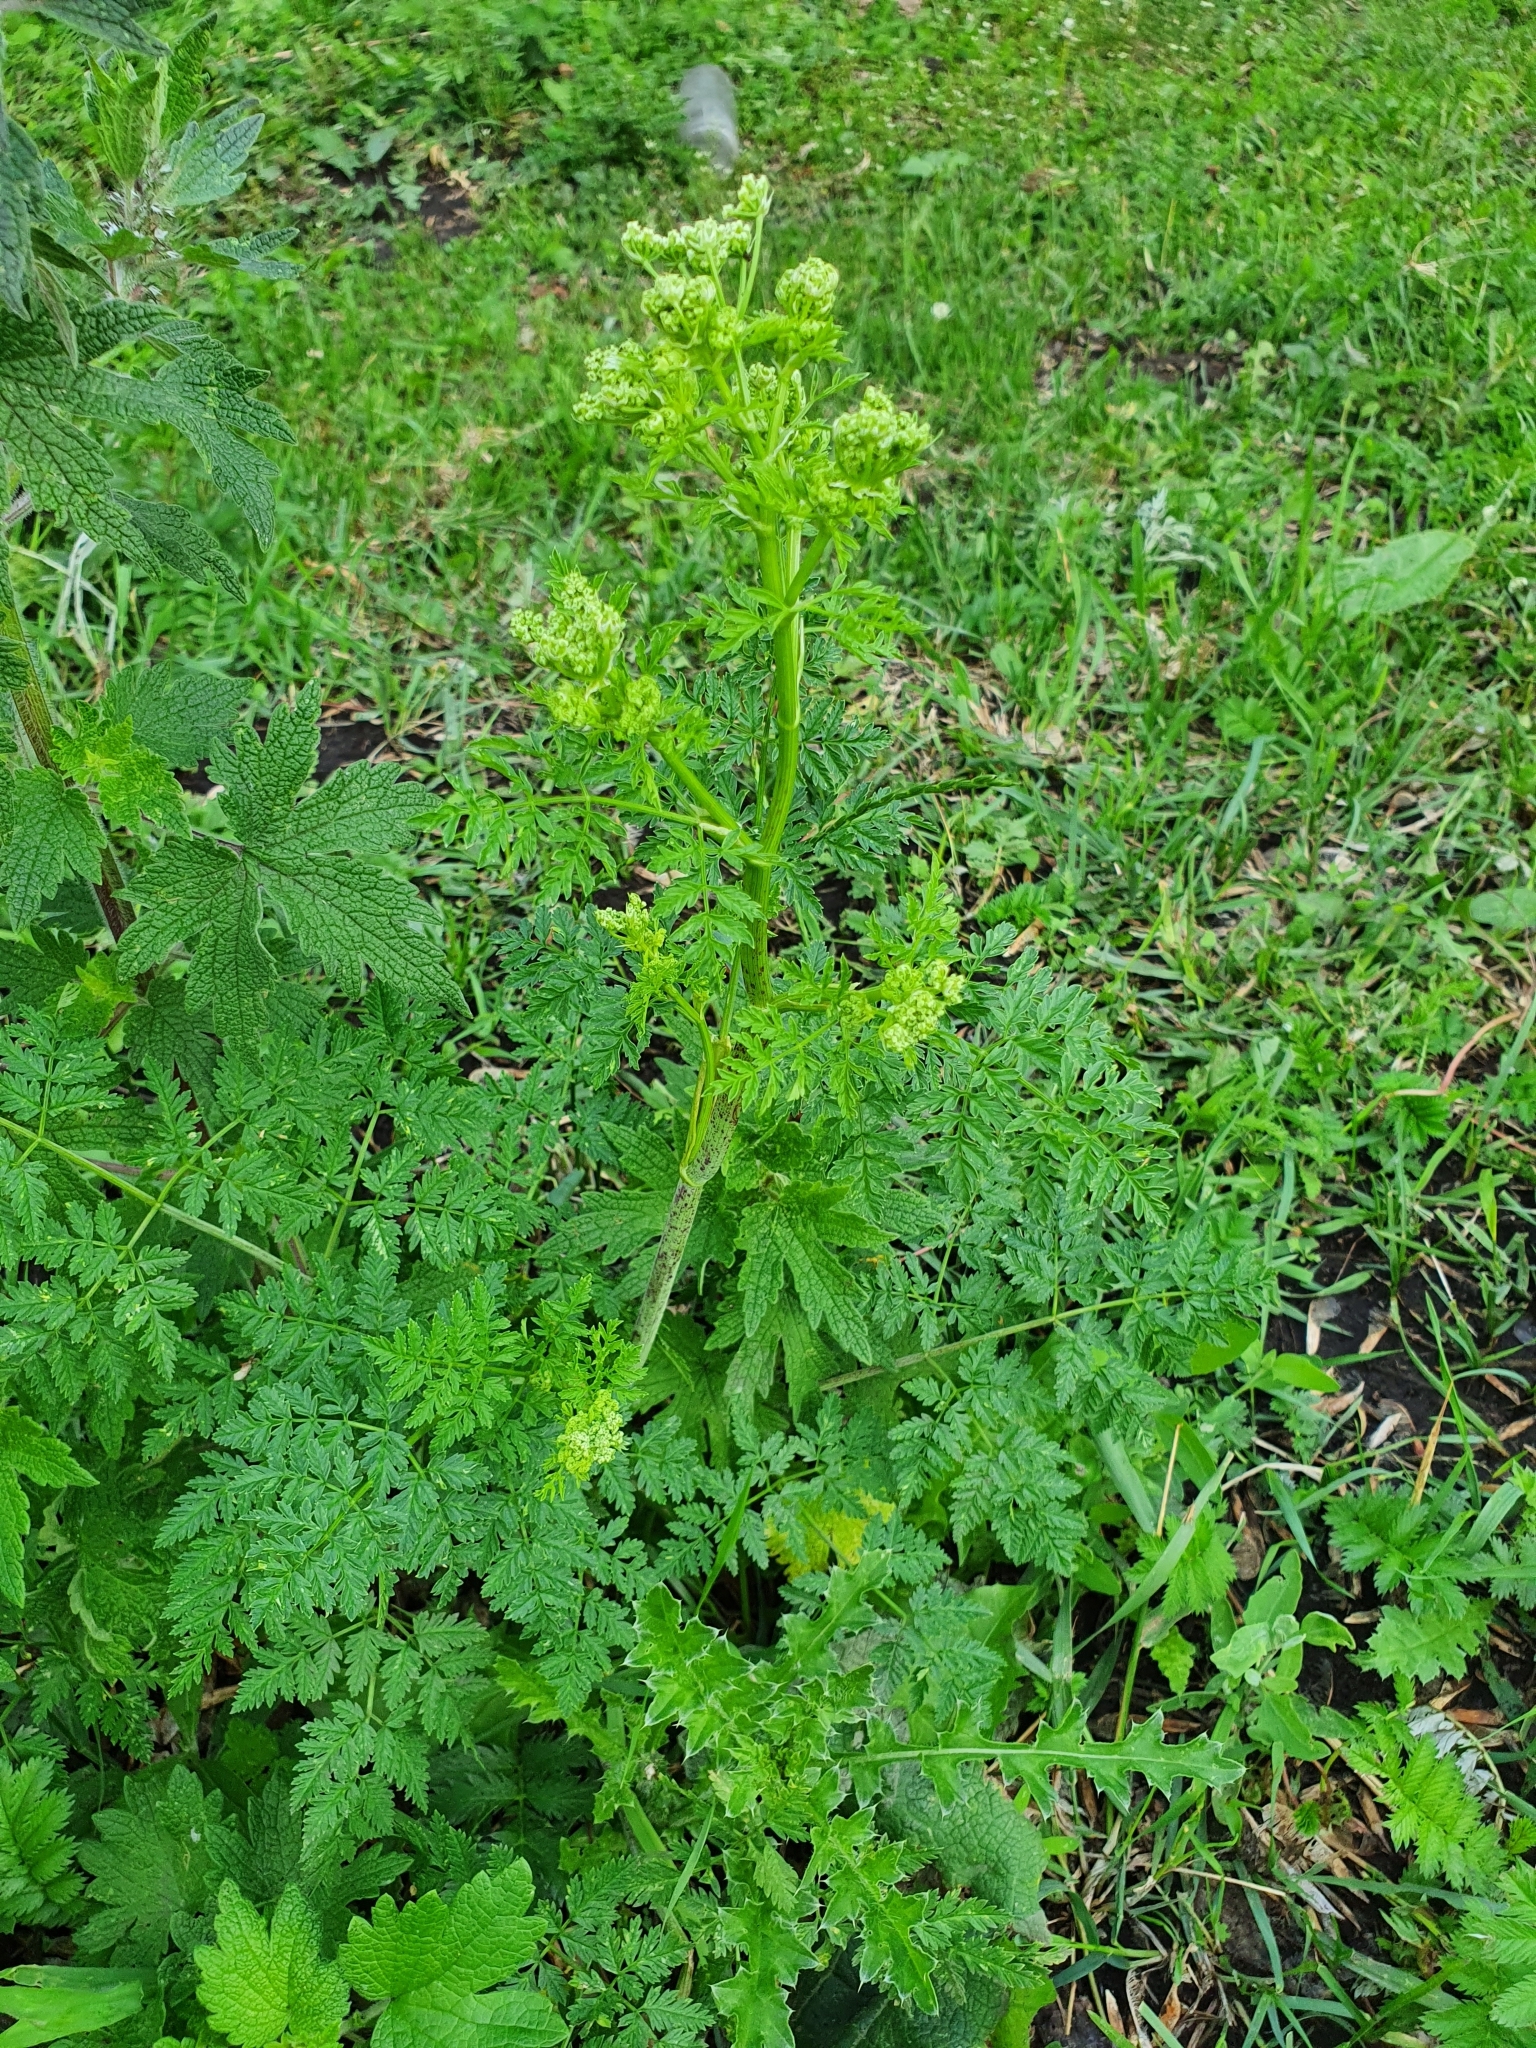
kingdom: Plantae
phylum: Tracheophyta
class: Magnoliopsida
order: Apiales
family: Apiaceae
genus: Conium
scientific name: Conium maculatum
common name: Hemlock
